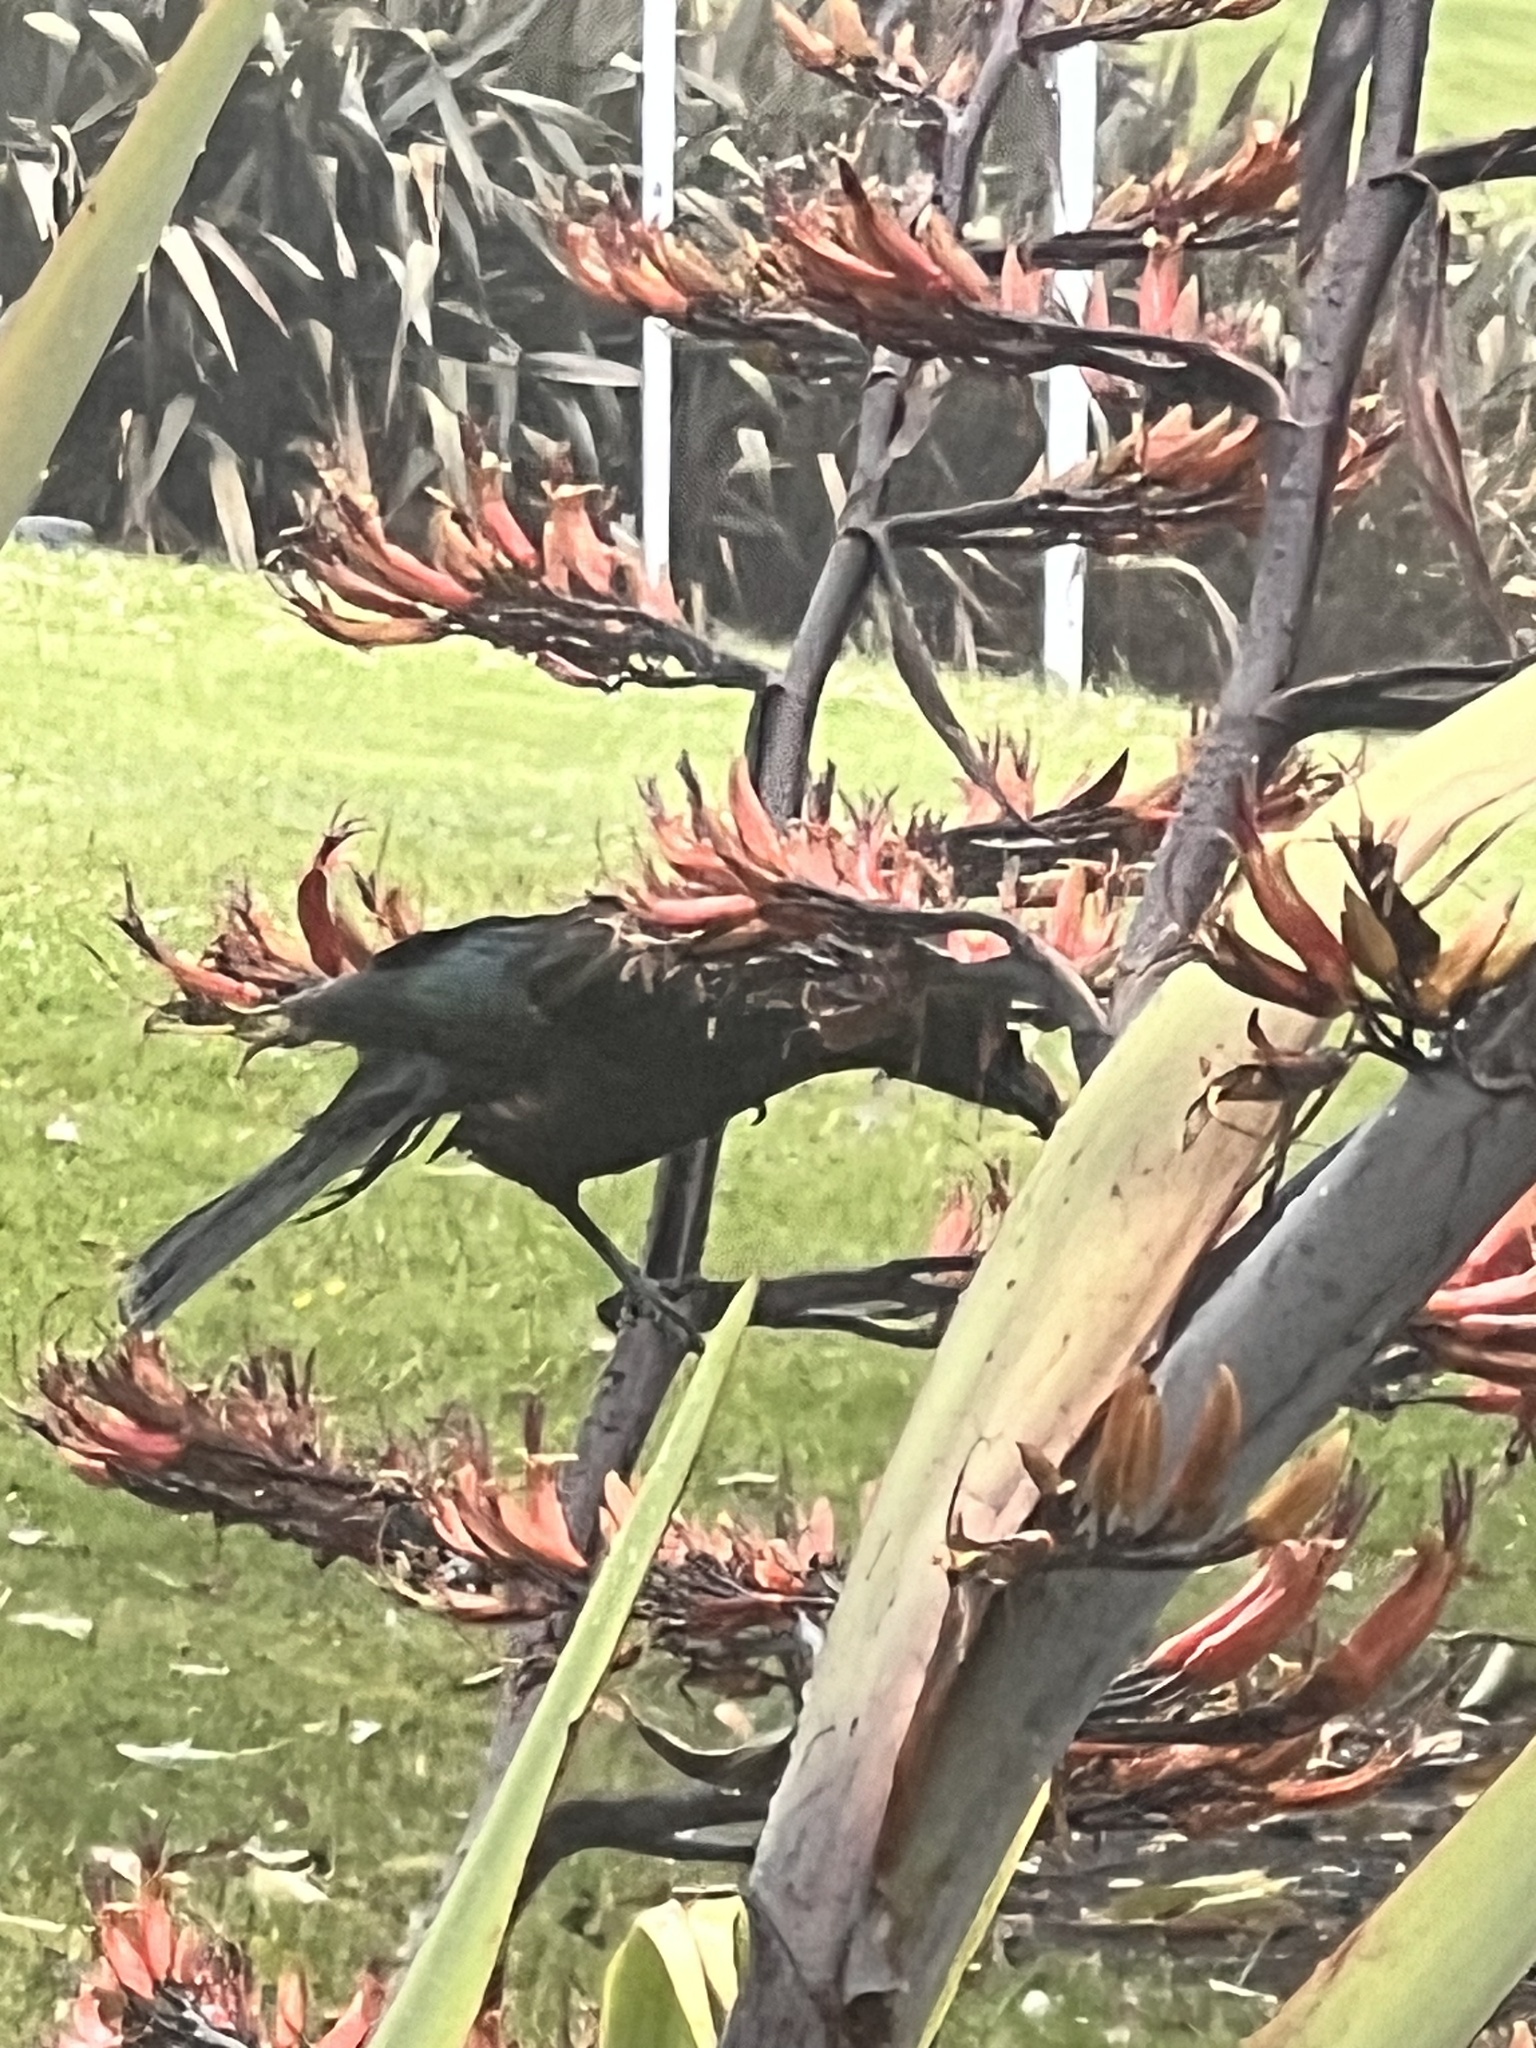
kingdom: Animalia
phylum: Chordata
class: Aves
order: Passeriformes
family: Meliphagidae
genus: Prosthemadera
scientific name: Prosthemadera novaeseelandiae
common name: Tui
